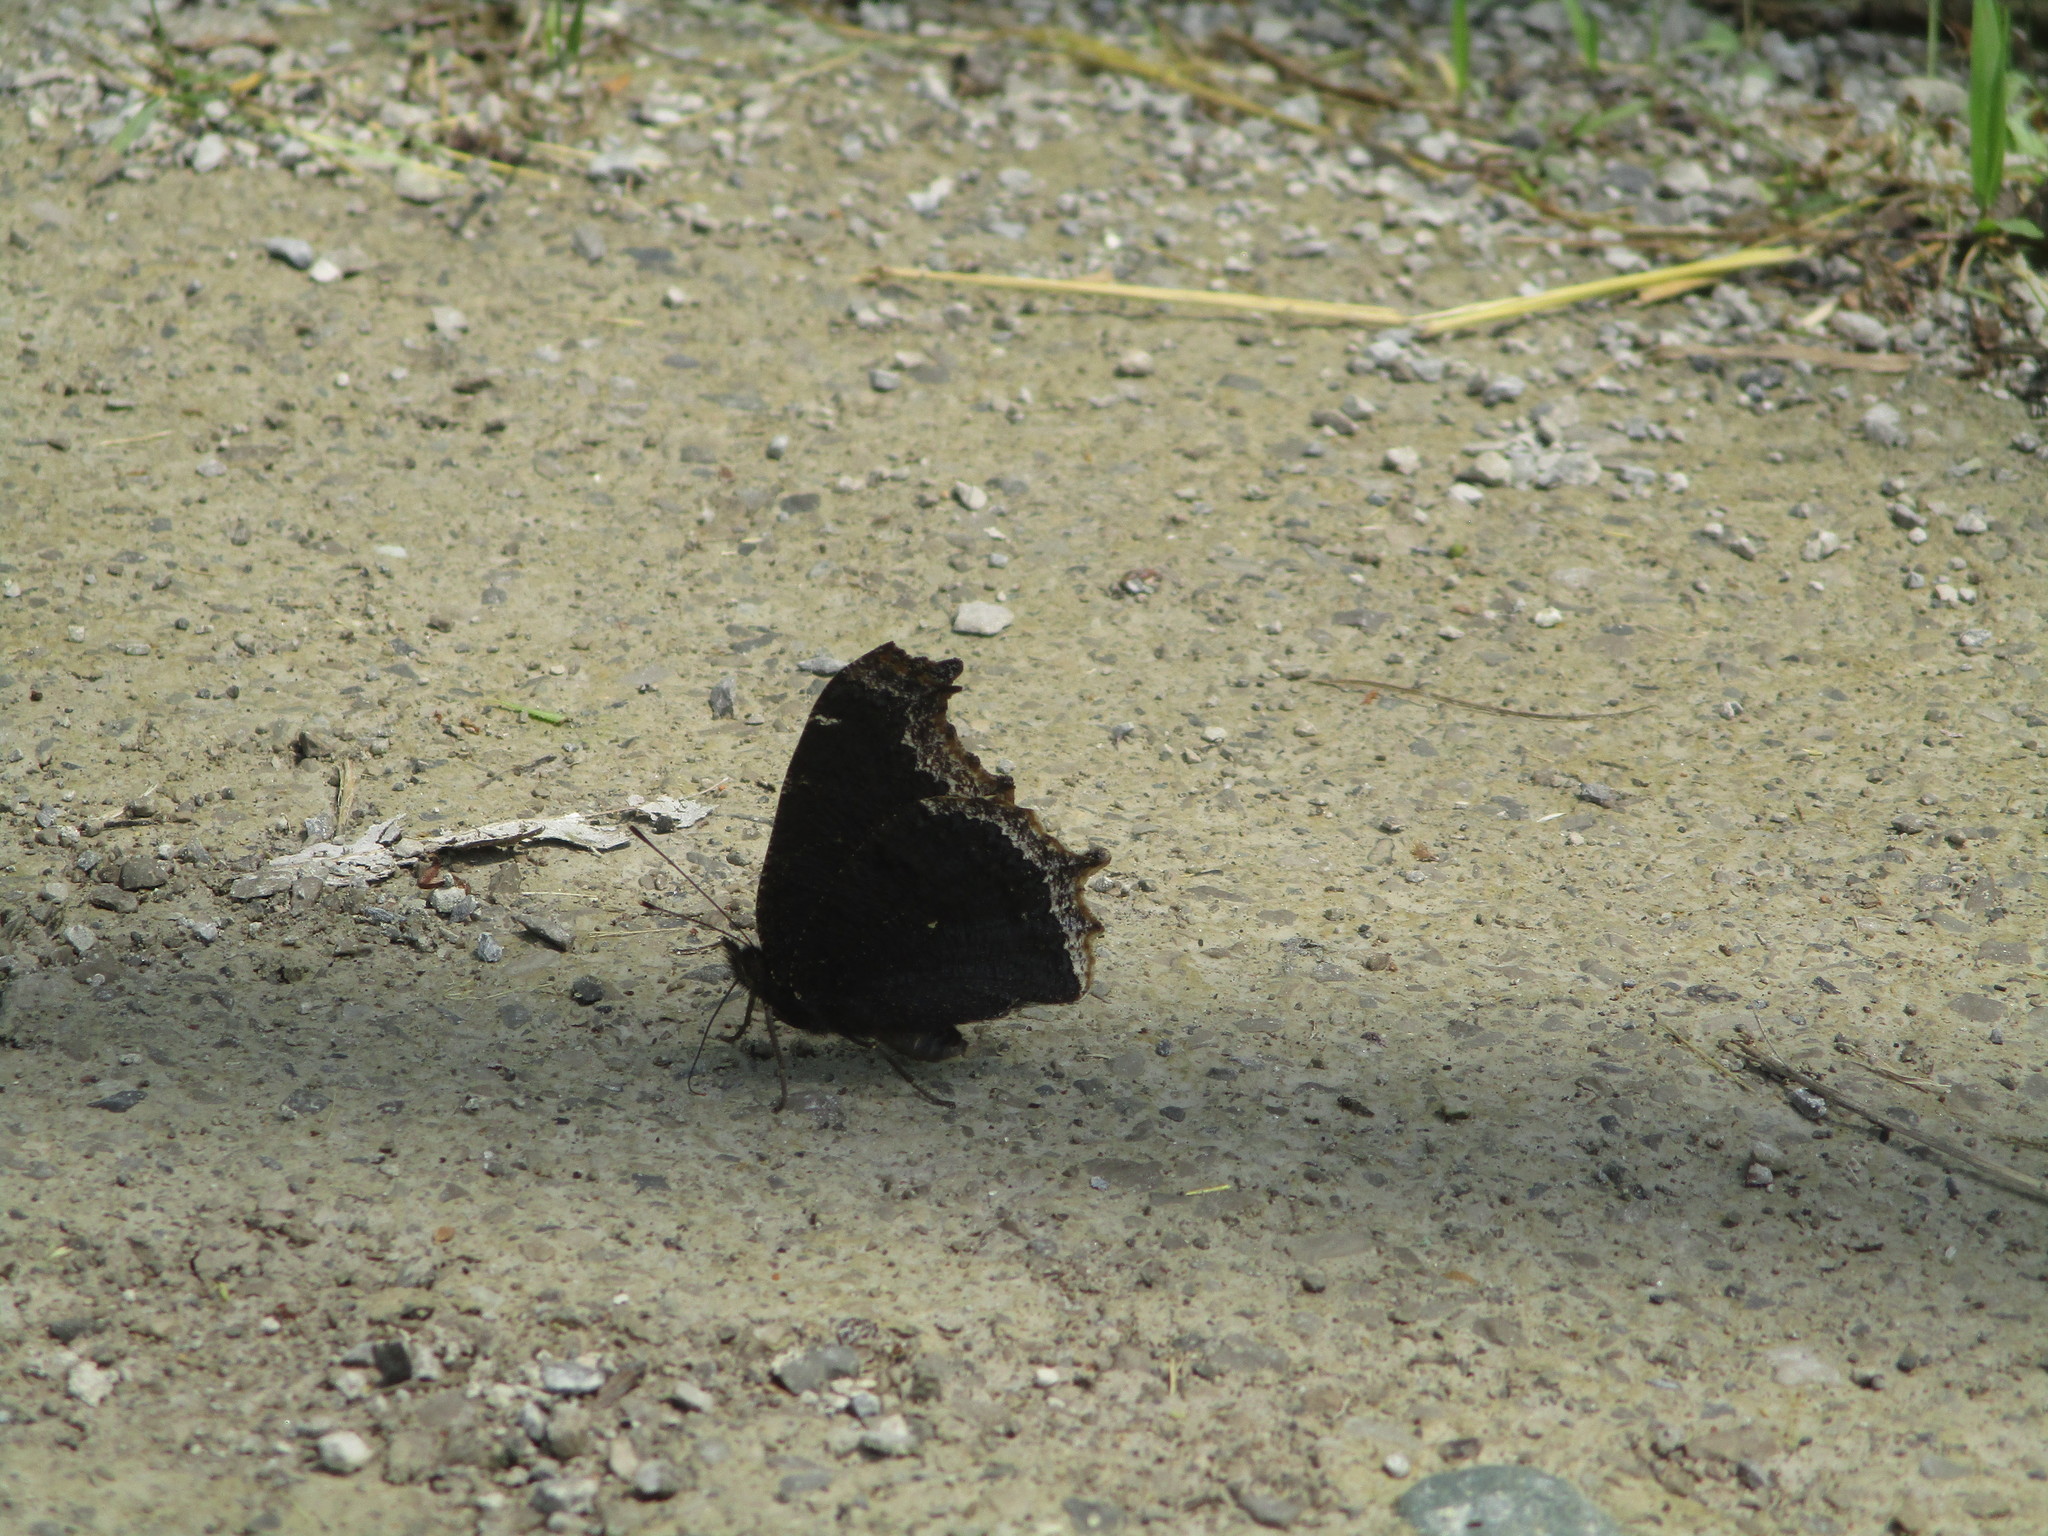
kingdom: Animalia
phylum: Arthropoda
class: Insecta
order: Lepidoptera
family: Nymphalidae
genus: Nymphalis
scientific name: Nymphalis antiopa
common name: Camberwell beauty
